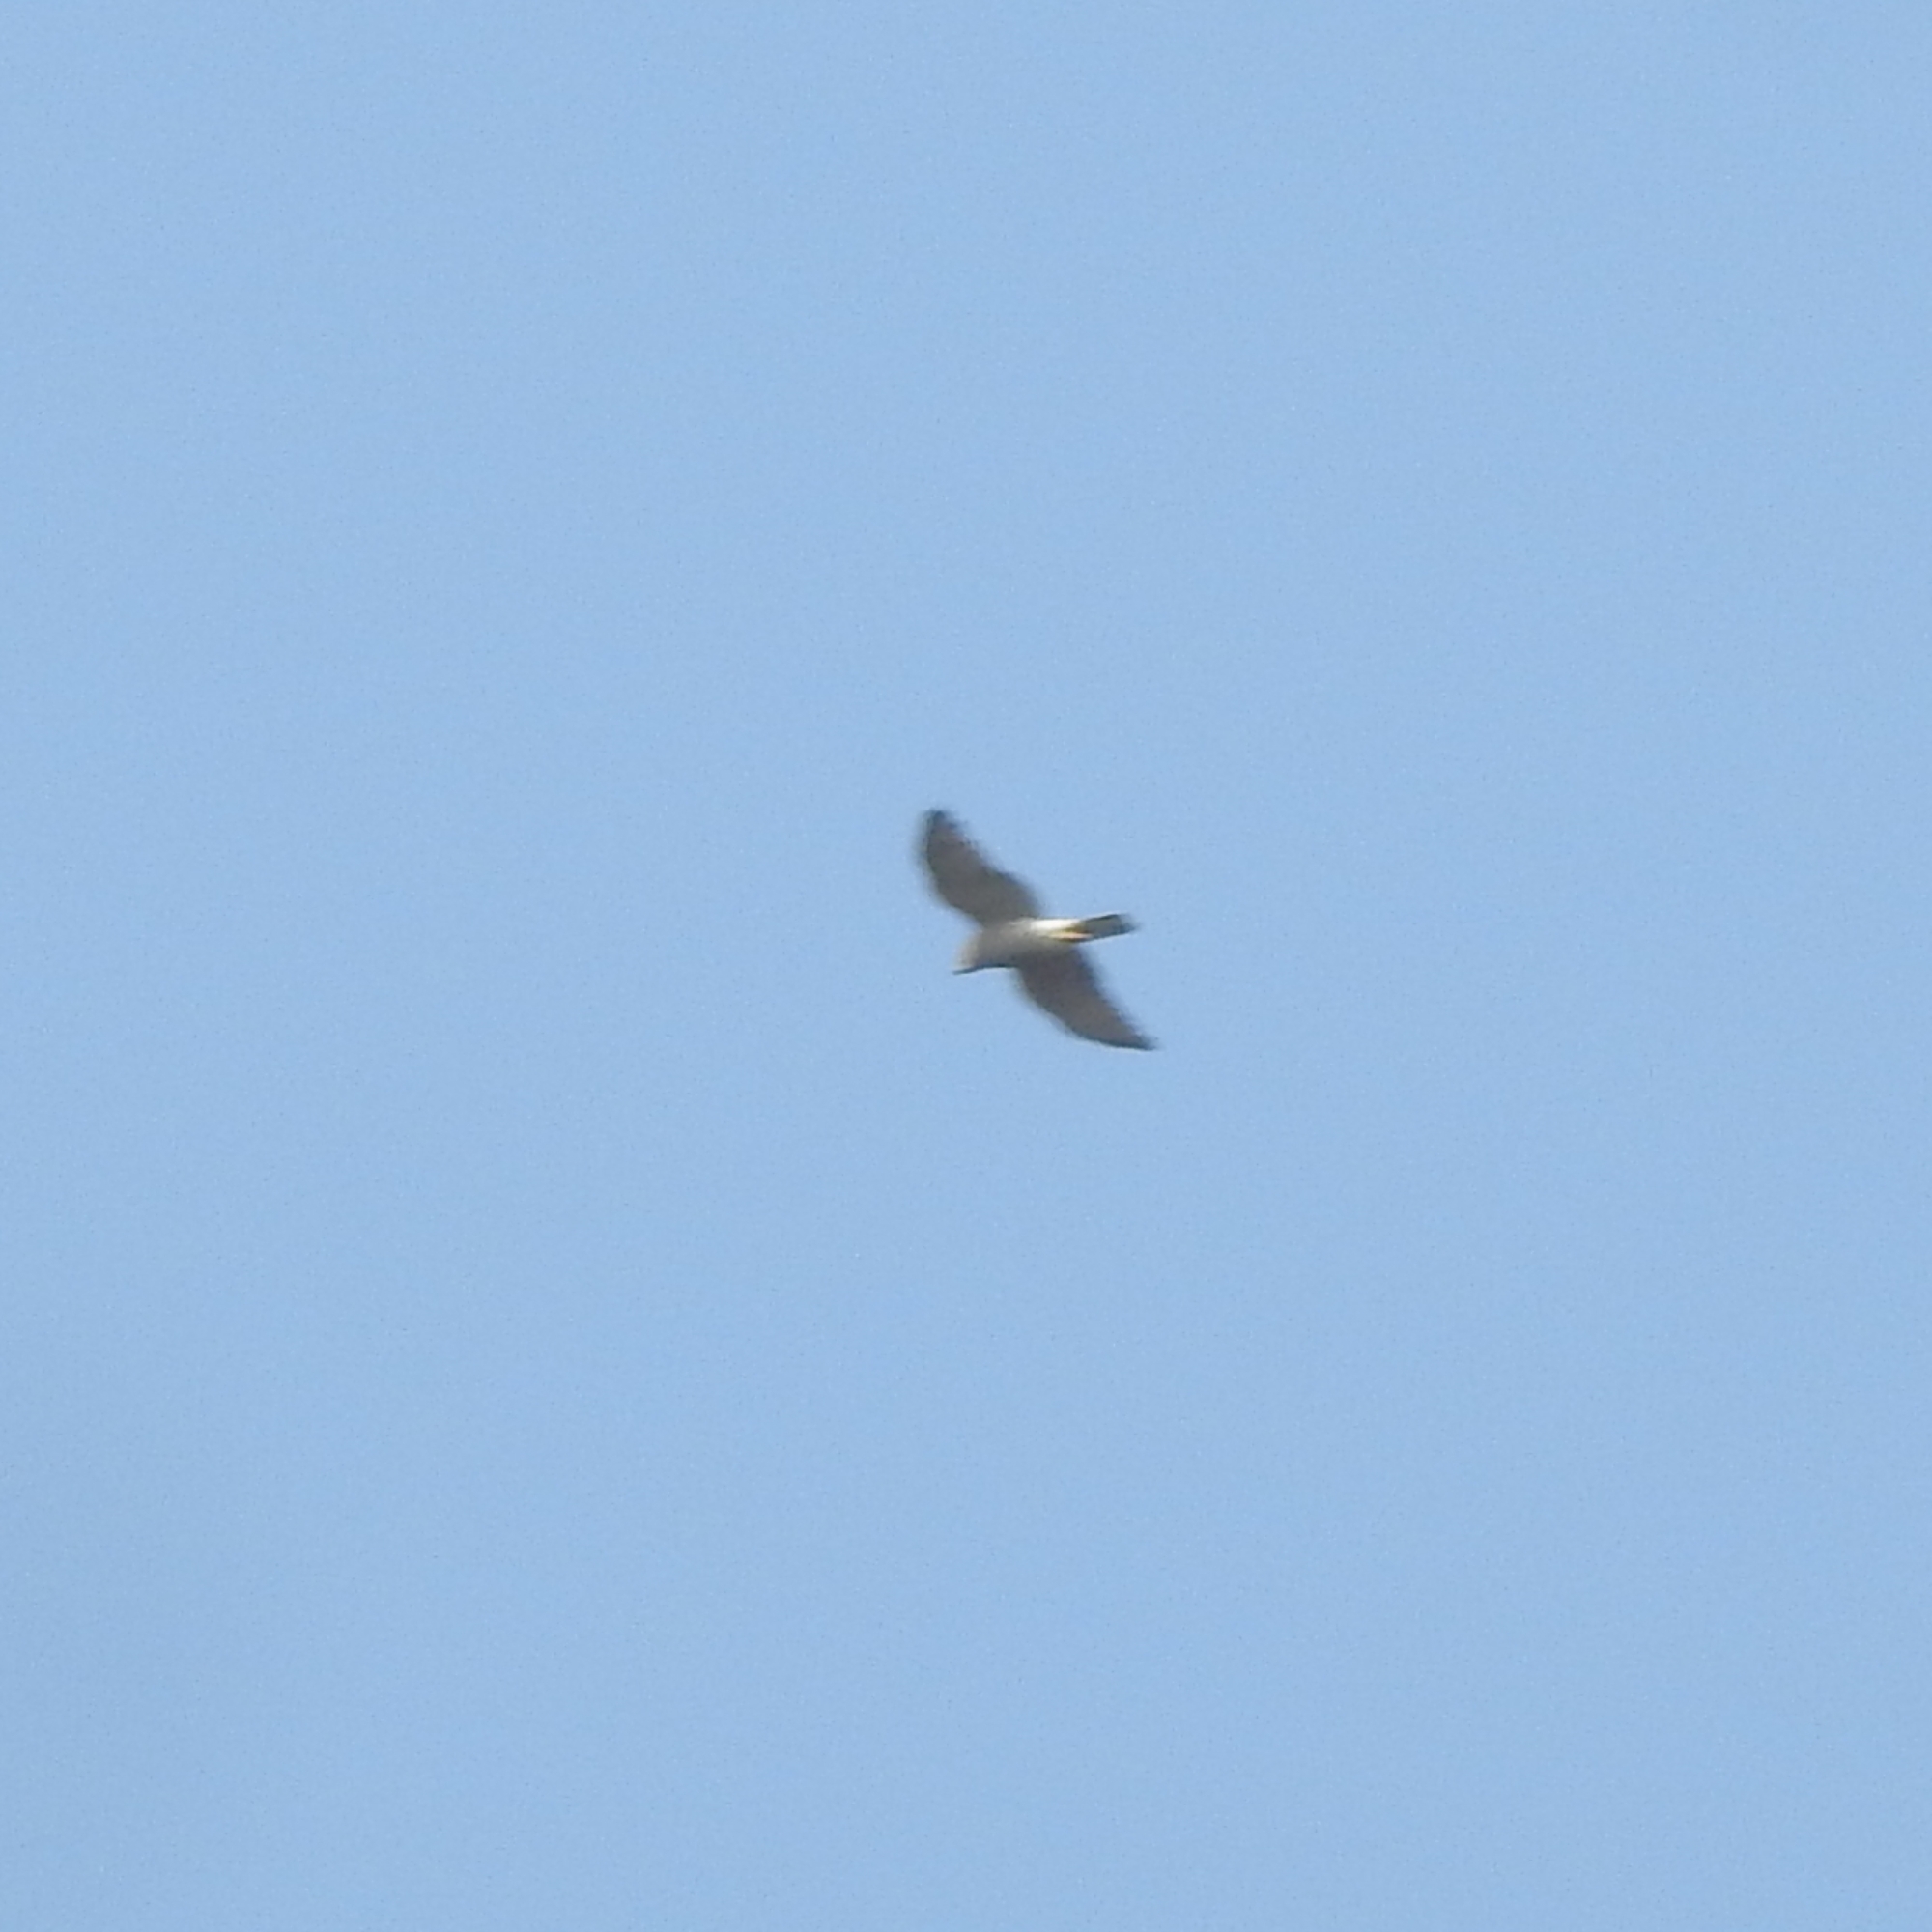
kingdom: Animalia
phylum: Chordata
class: Aves
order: Accipitriformes
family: Accipitridae
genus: Accipiter
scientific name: Accipiter badius
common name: Shikra
